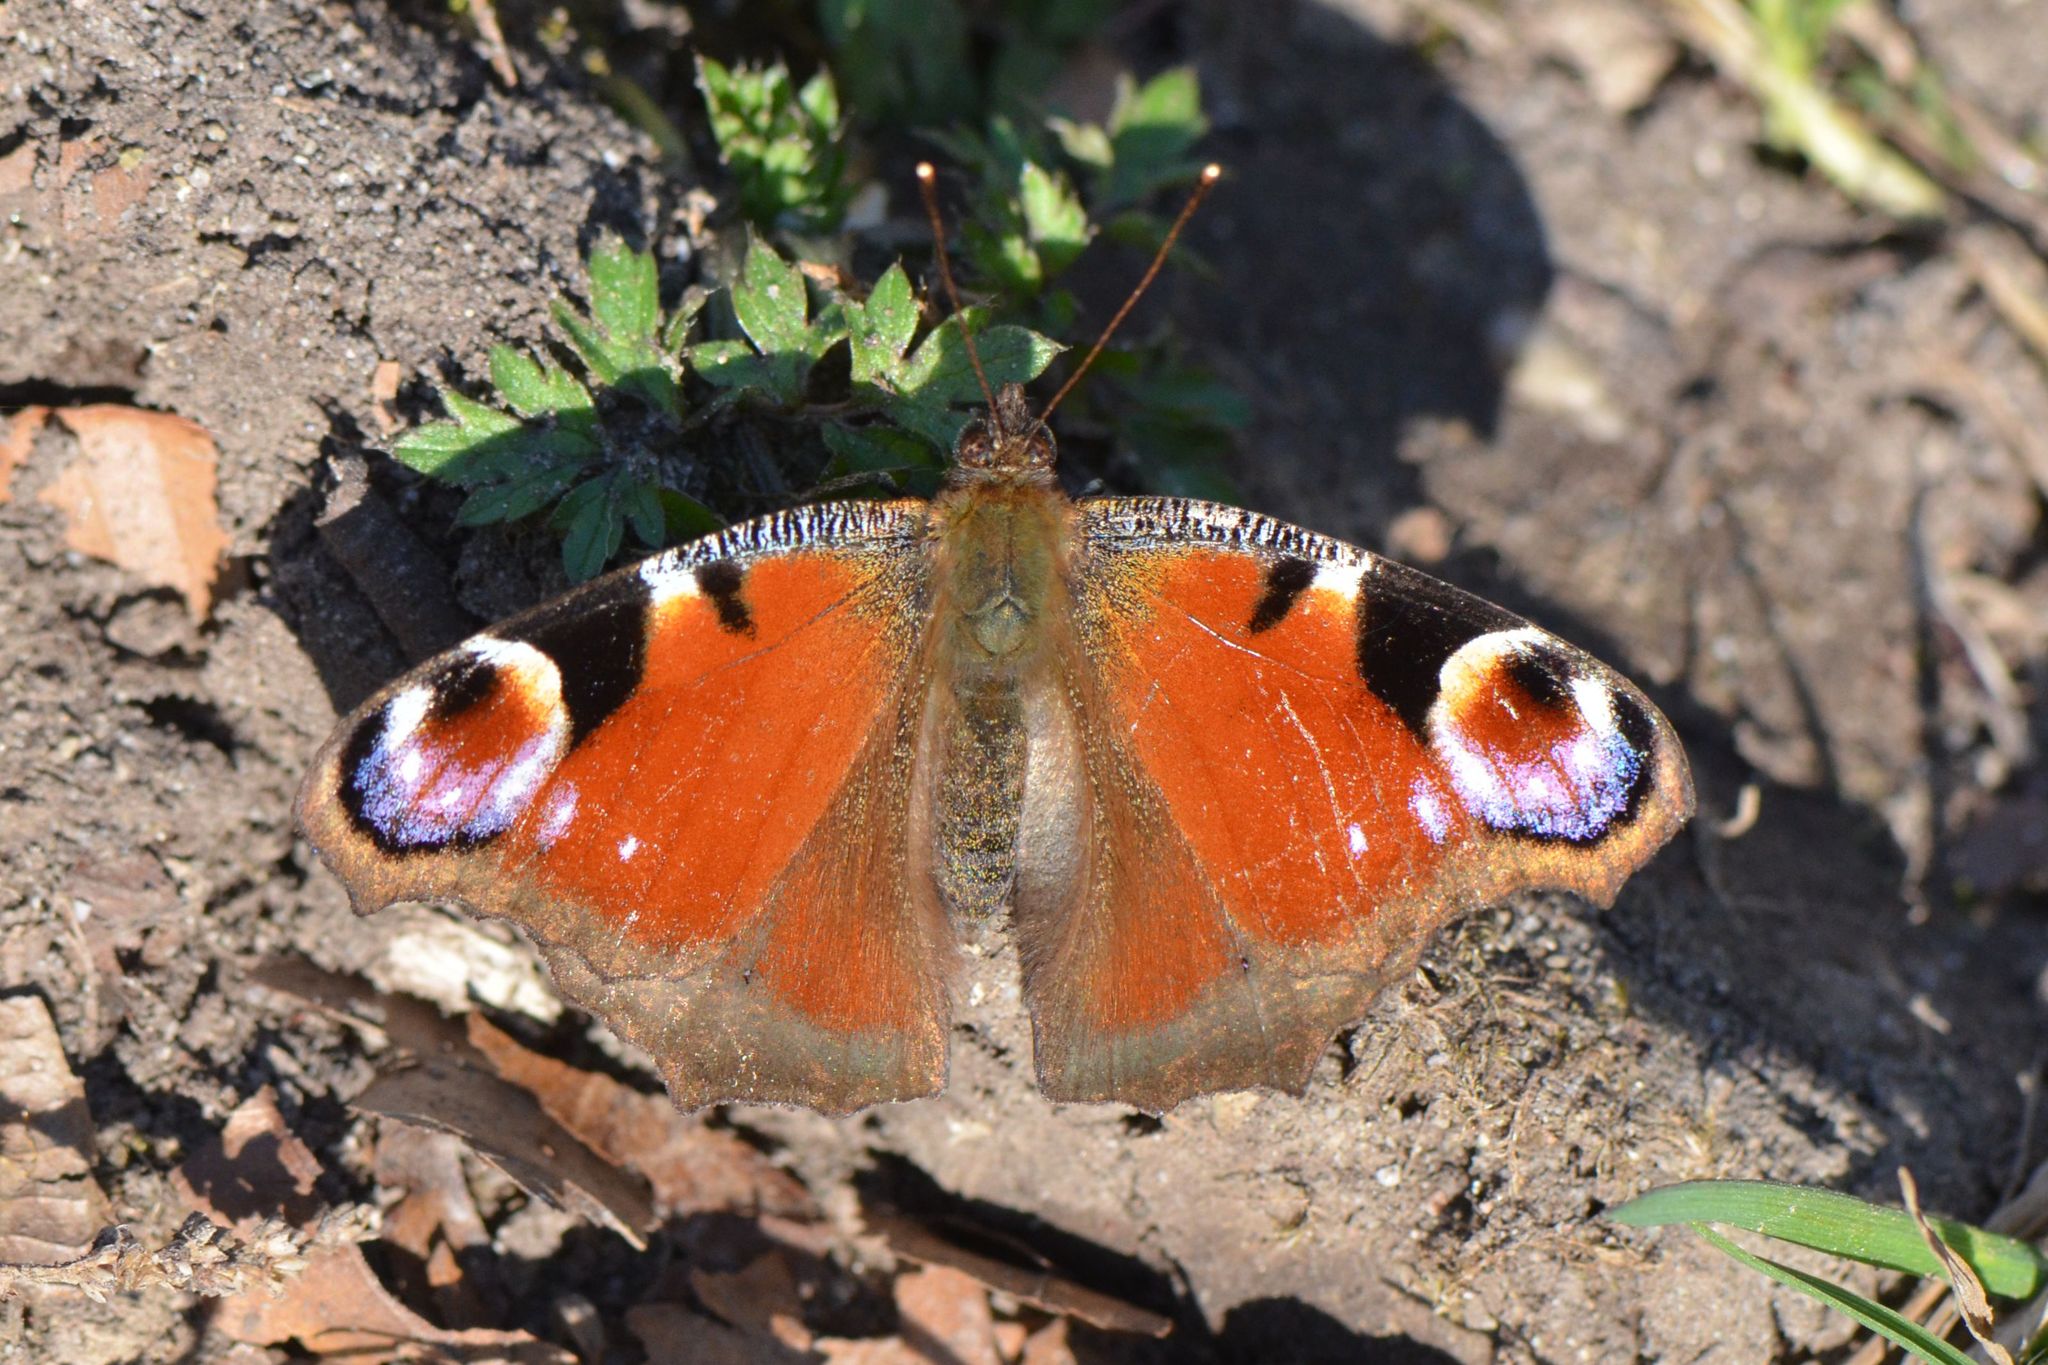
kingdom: Animalia
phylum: Arthropoda
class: Insecta
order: Lepidoptera
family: Nymphalidae
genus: Aglais
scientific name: Aglais io
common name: Peacock
